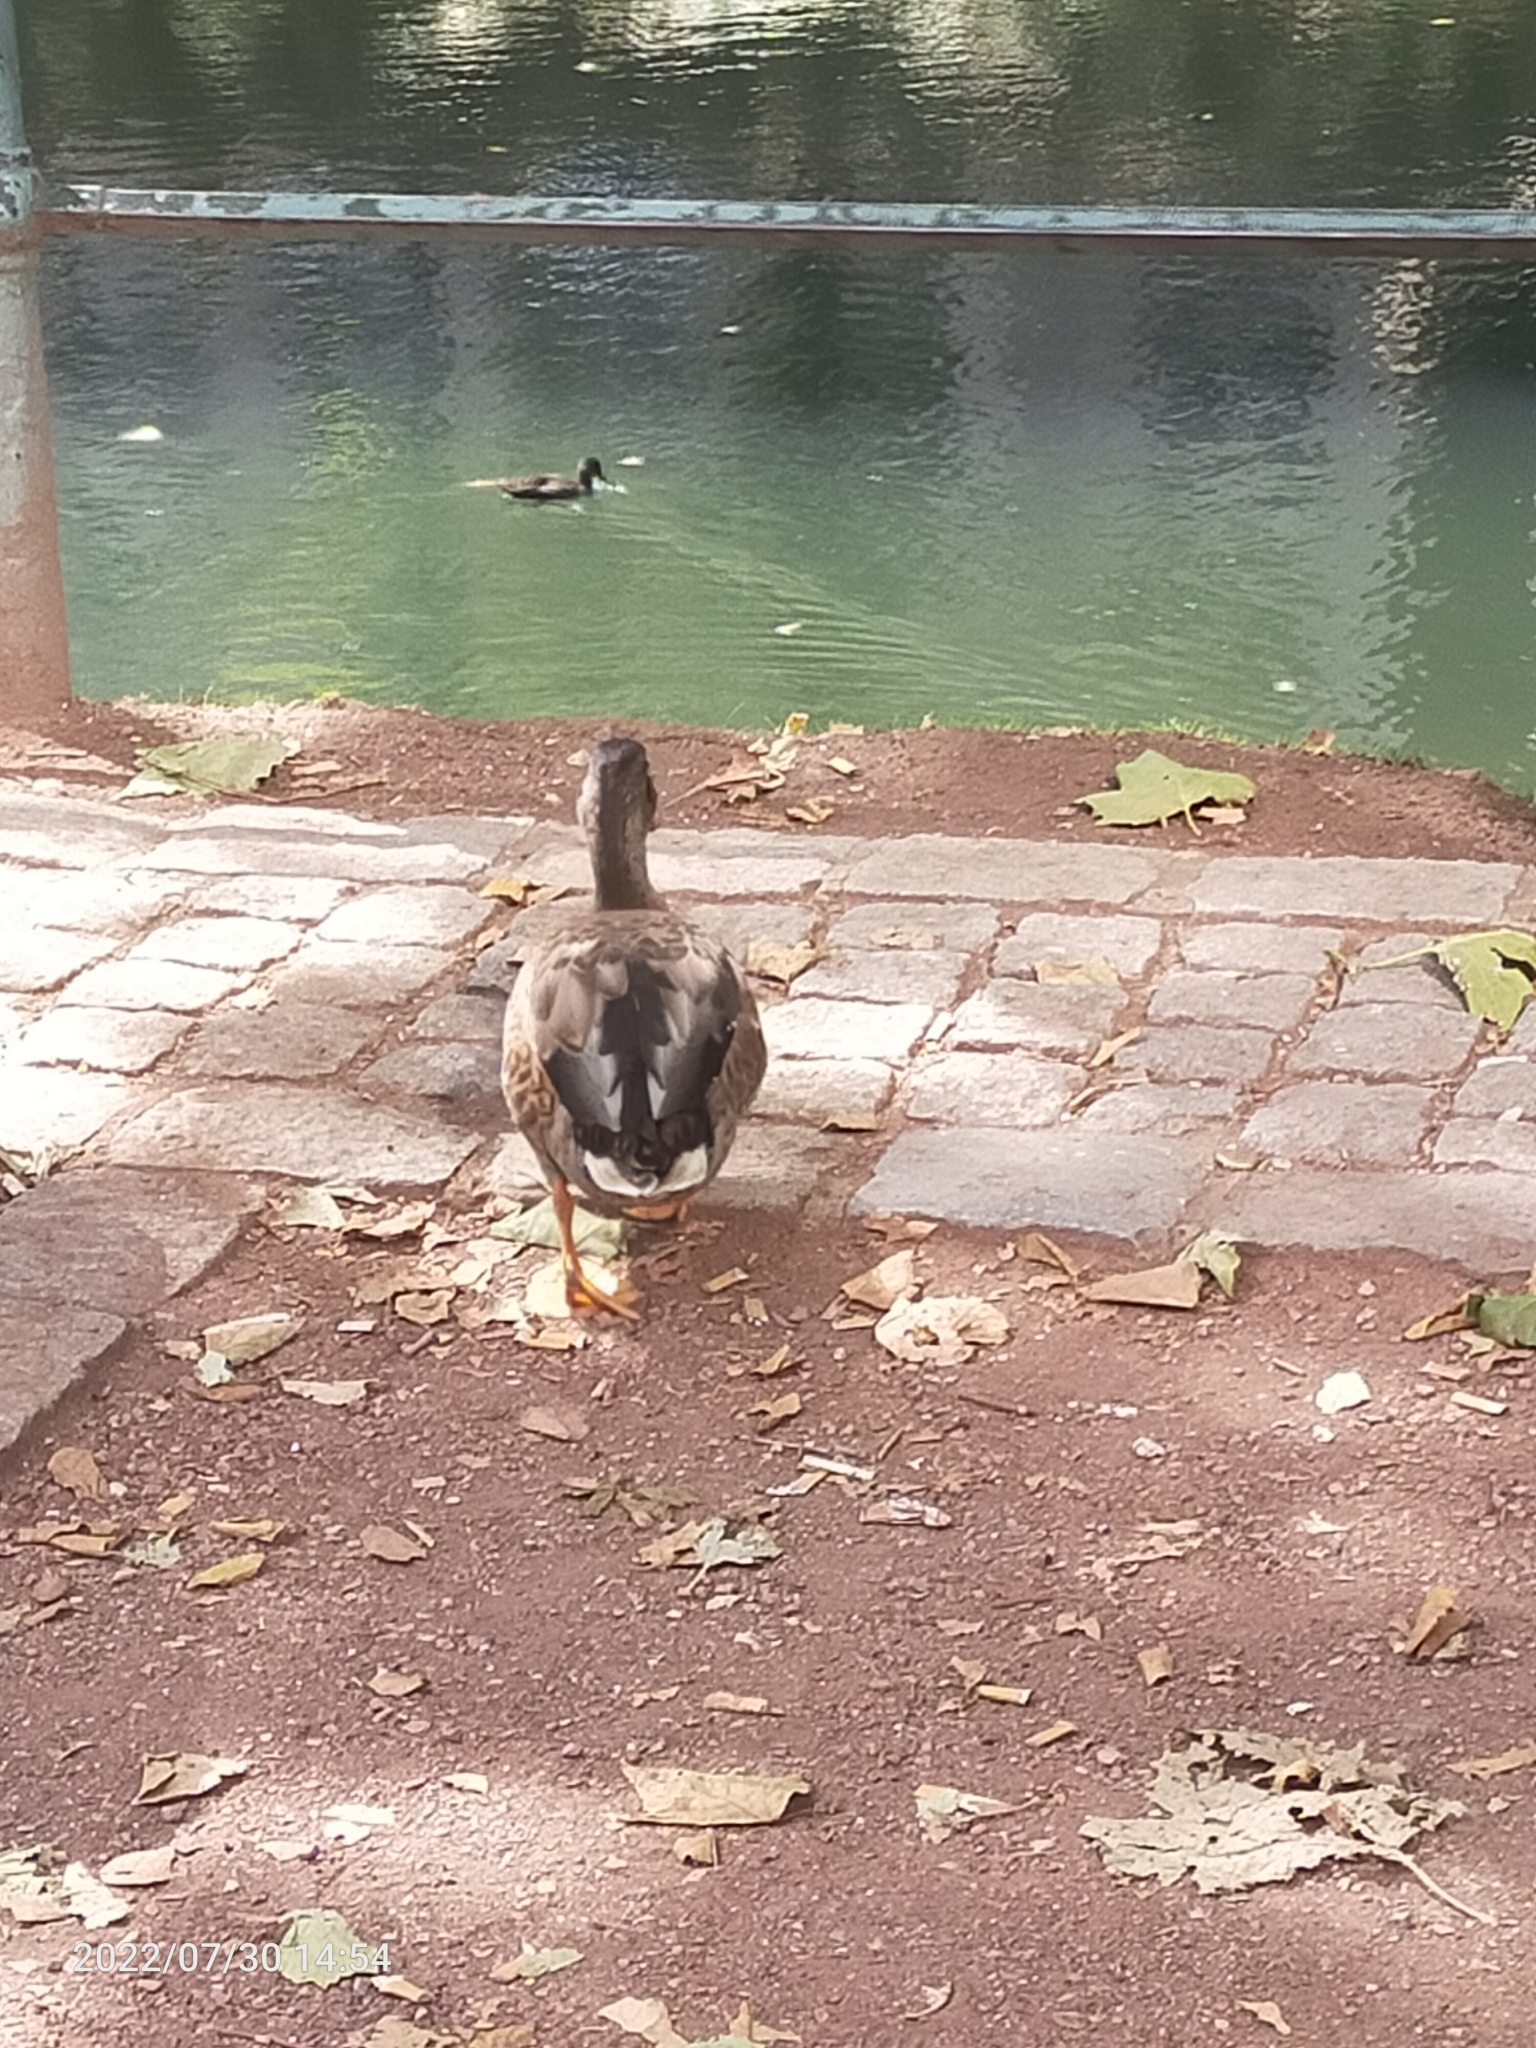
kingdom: Animalia
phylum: Chordata
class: Aves
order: Anseriformes
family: Anatidae
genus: Anas
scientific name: Anas platyrhynchos
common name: Mallard
